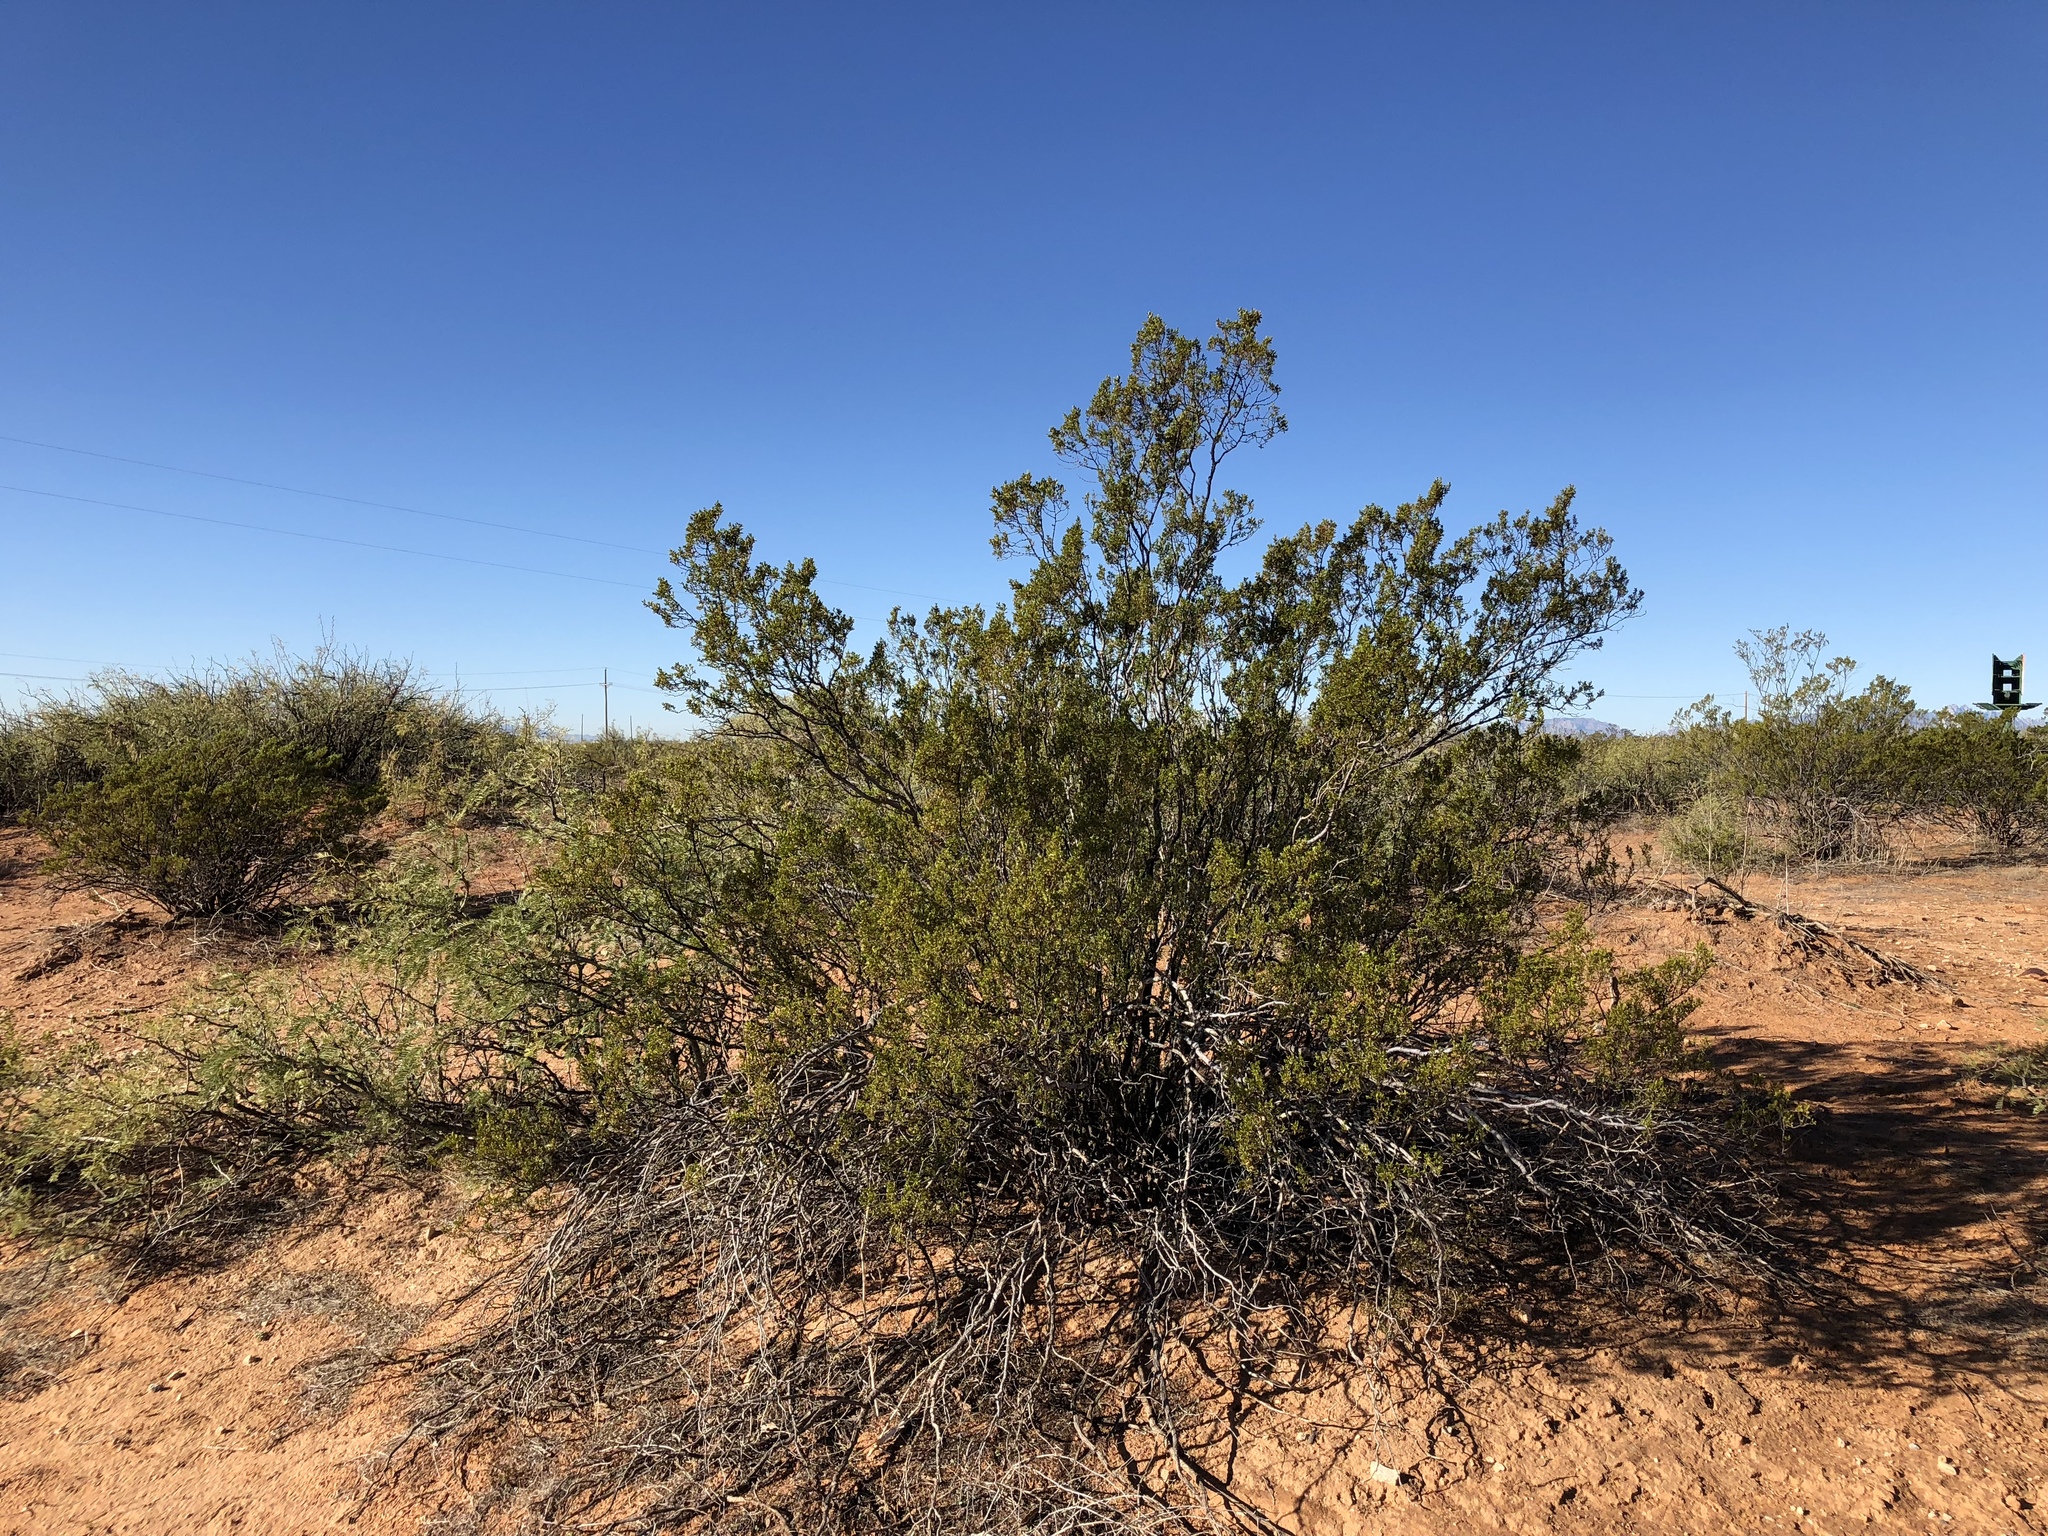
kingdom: Plantae
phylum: Tracheophyta
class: Magnoliopsida
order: Zygophyllales
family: Zygophyllaceae
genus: Larrea
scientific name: Larrea tridentata
